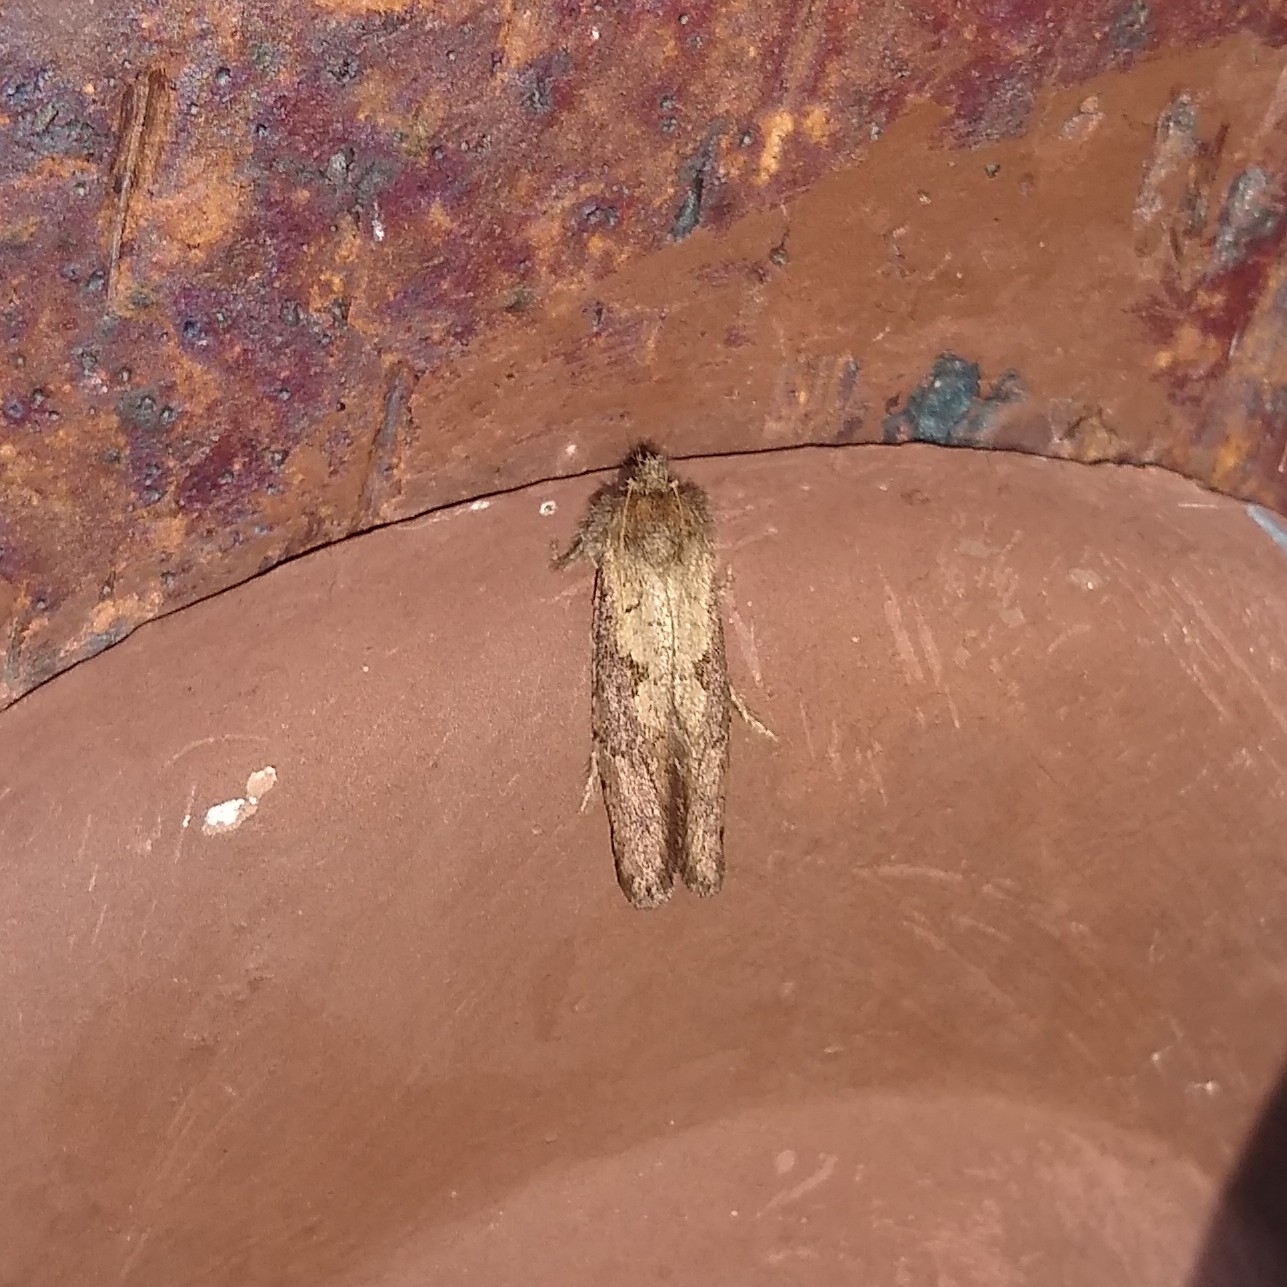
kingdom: Animalia
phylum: Arthropoda
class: Insecta
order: Lepidoptera
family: Tineidae
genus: Acrolophus
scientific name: Acrolophus mora
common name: Dark acrolophus
